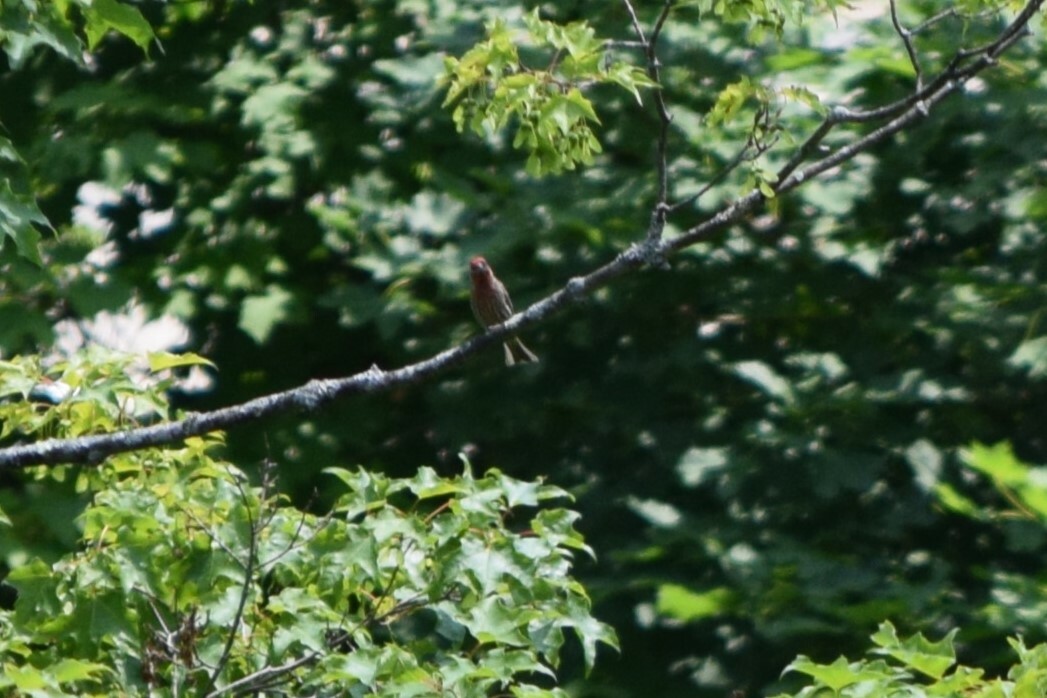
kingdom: Animalia
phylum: Chordata
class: Aves
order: Passeriformes
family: Fringillidae
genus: Haemorhous
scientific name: Haemorhous mexicanus
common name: House finch
